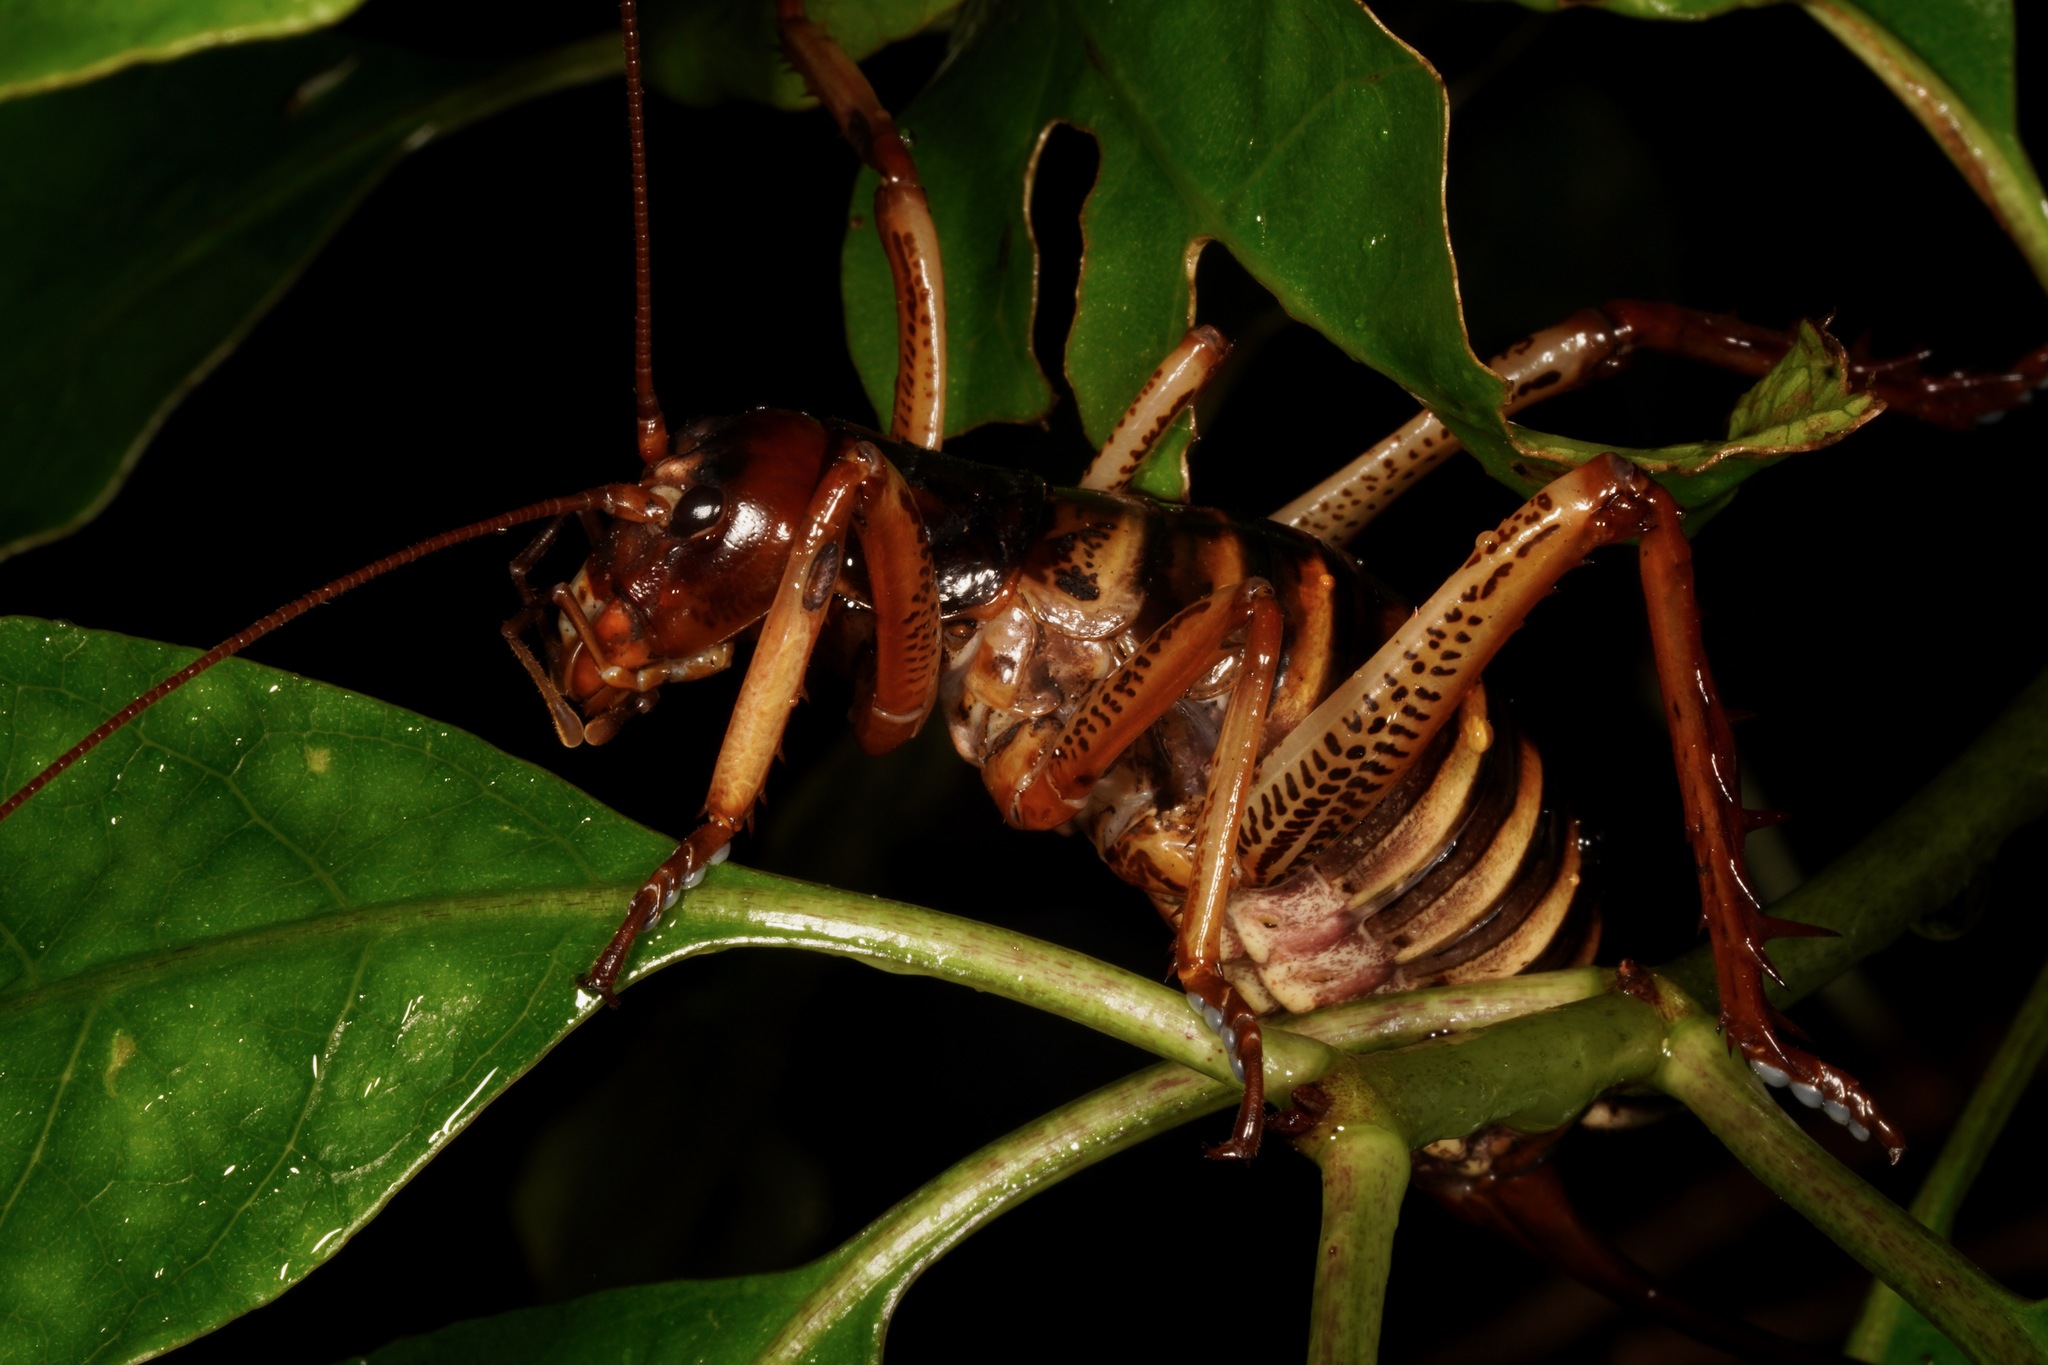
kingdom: Animalia
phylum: Arthropoda
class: Insecta
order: Orthoptera
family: Anostostomatidae
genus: Hemideina
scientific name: Hemideina crassidens
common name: Wellington tree weta
